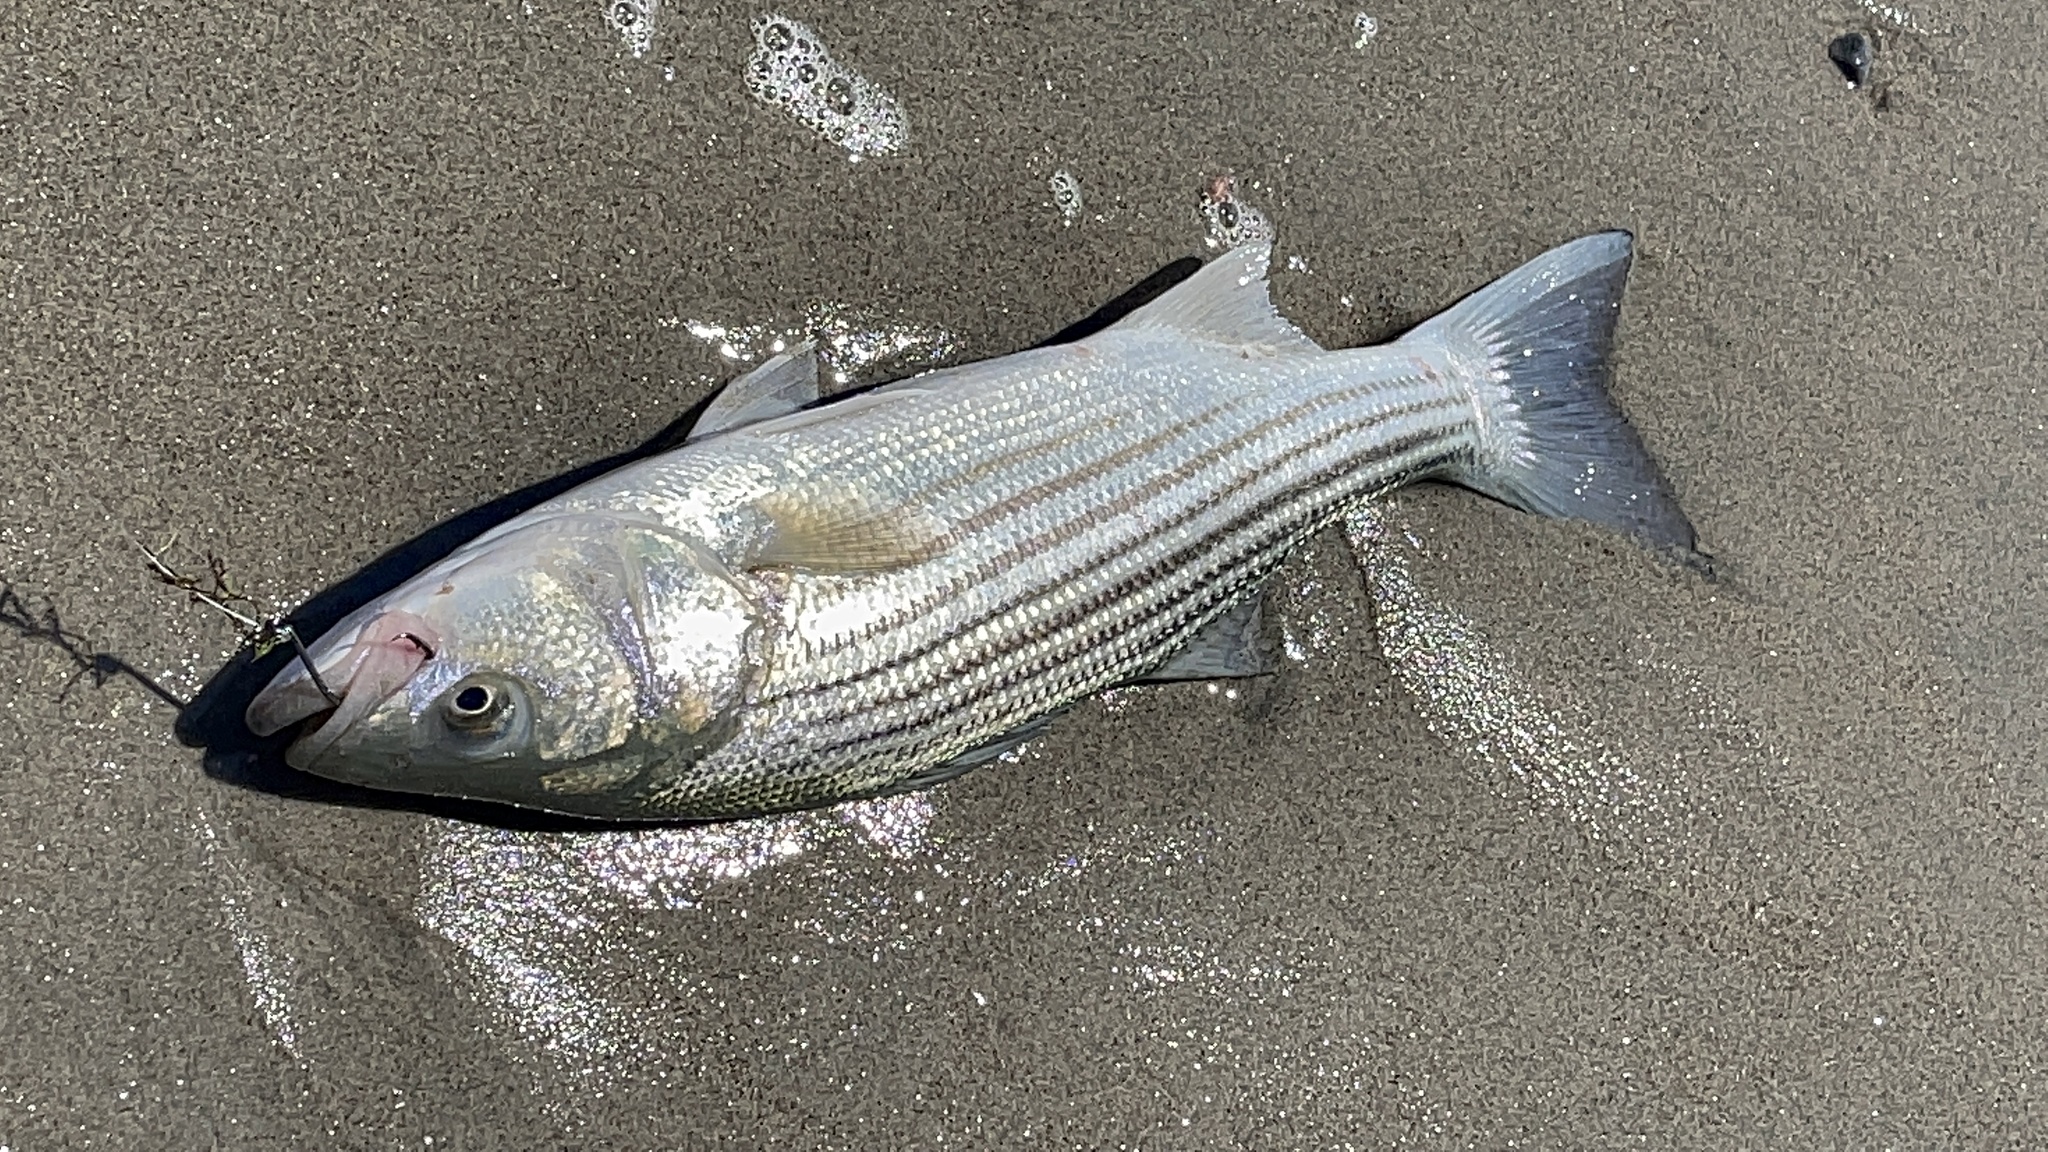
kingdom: Animalia
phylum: Chordata
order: Perciformes
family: Moronidae
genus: Morone
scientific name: Morone saxatilis
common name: Striped bass
